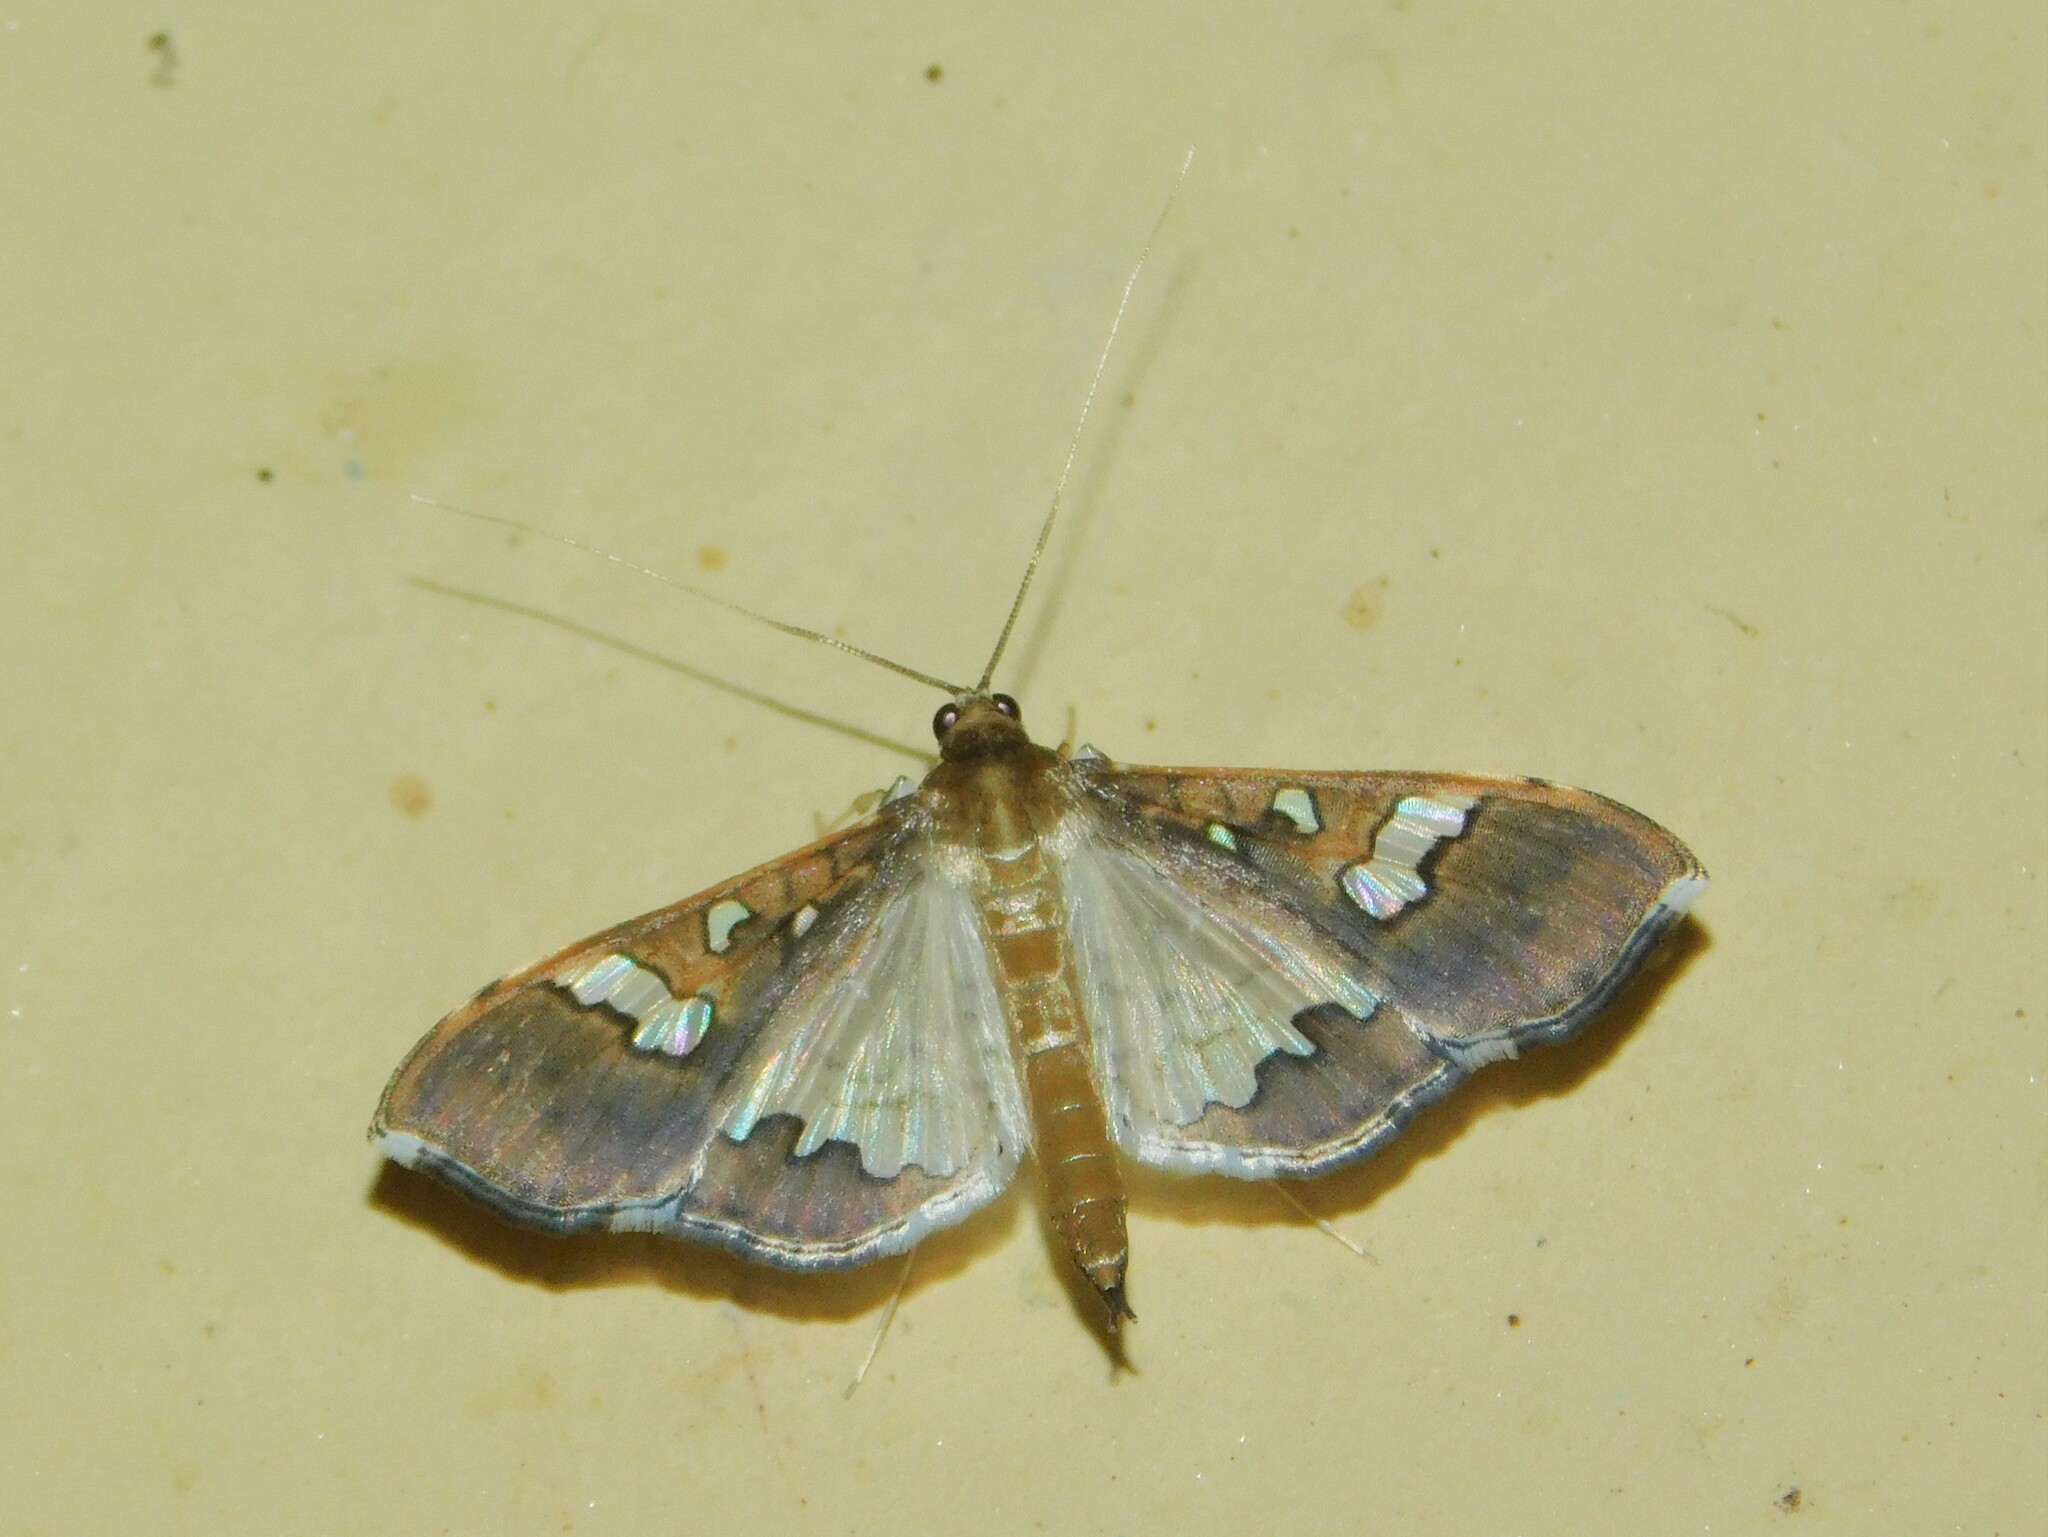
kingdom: Animalia
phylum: Arthropoda
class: Insecta
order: Lepidoptera
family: Crambidae
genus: Maruca
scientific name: Maruca vitrata
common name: Maruca pod borer
